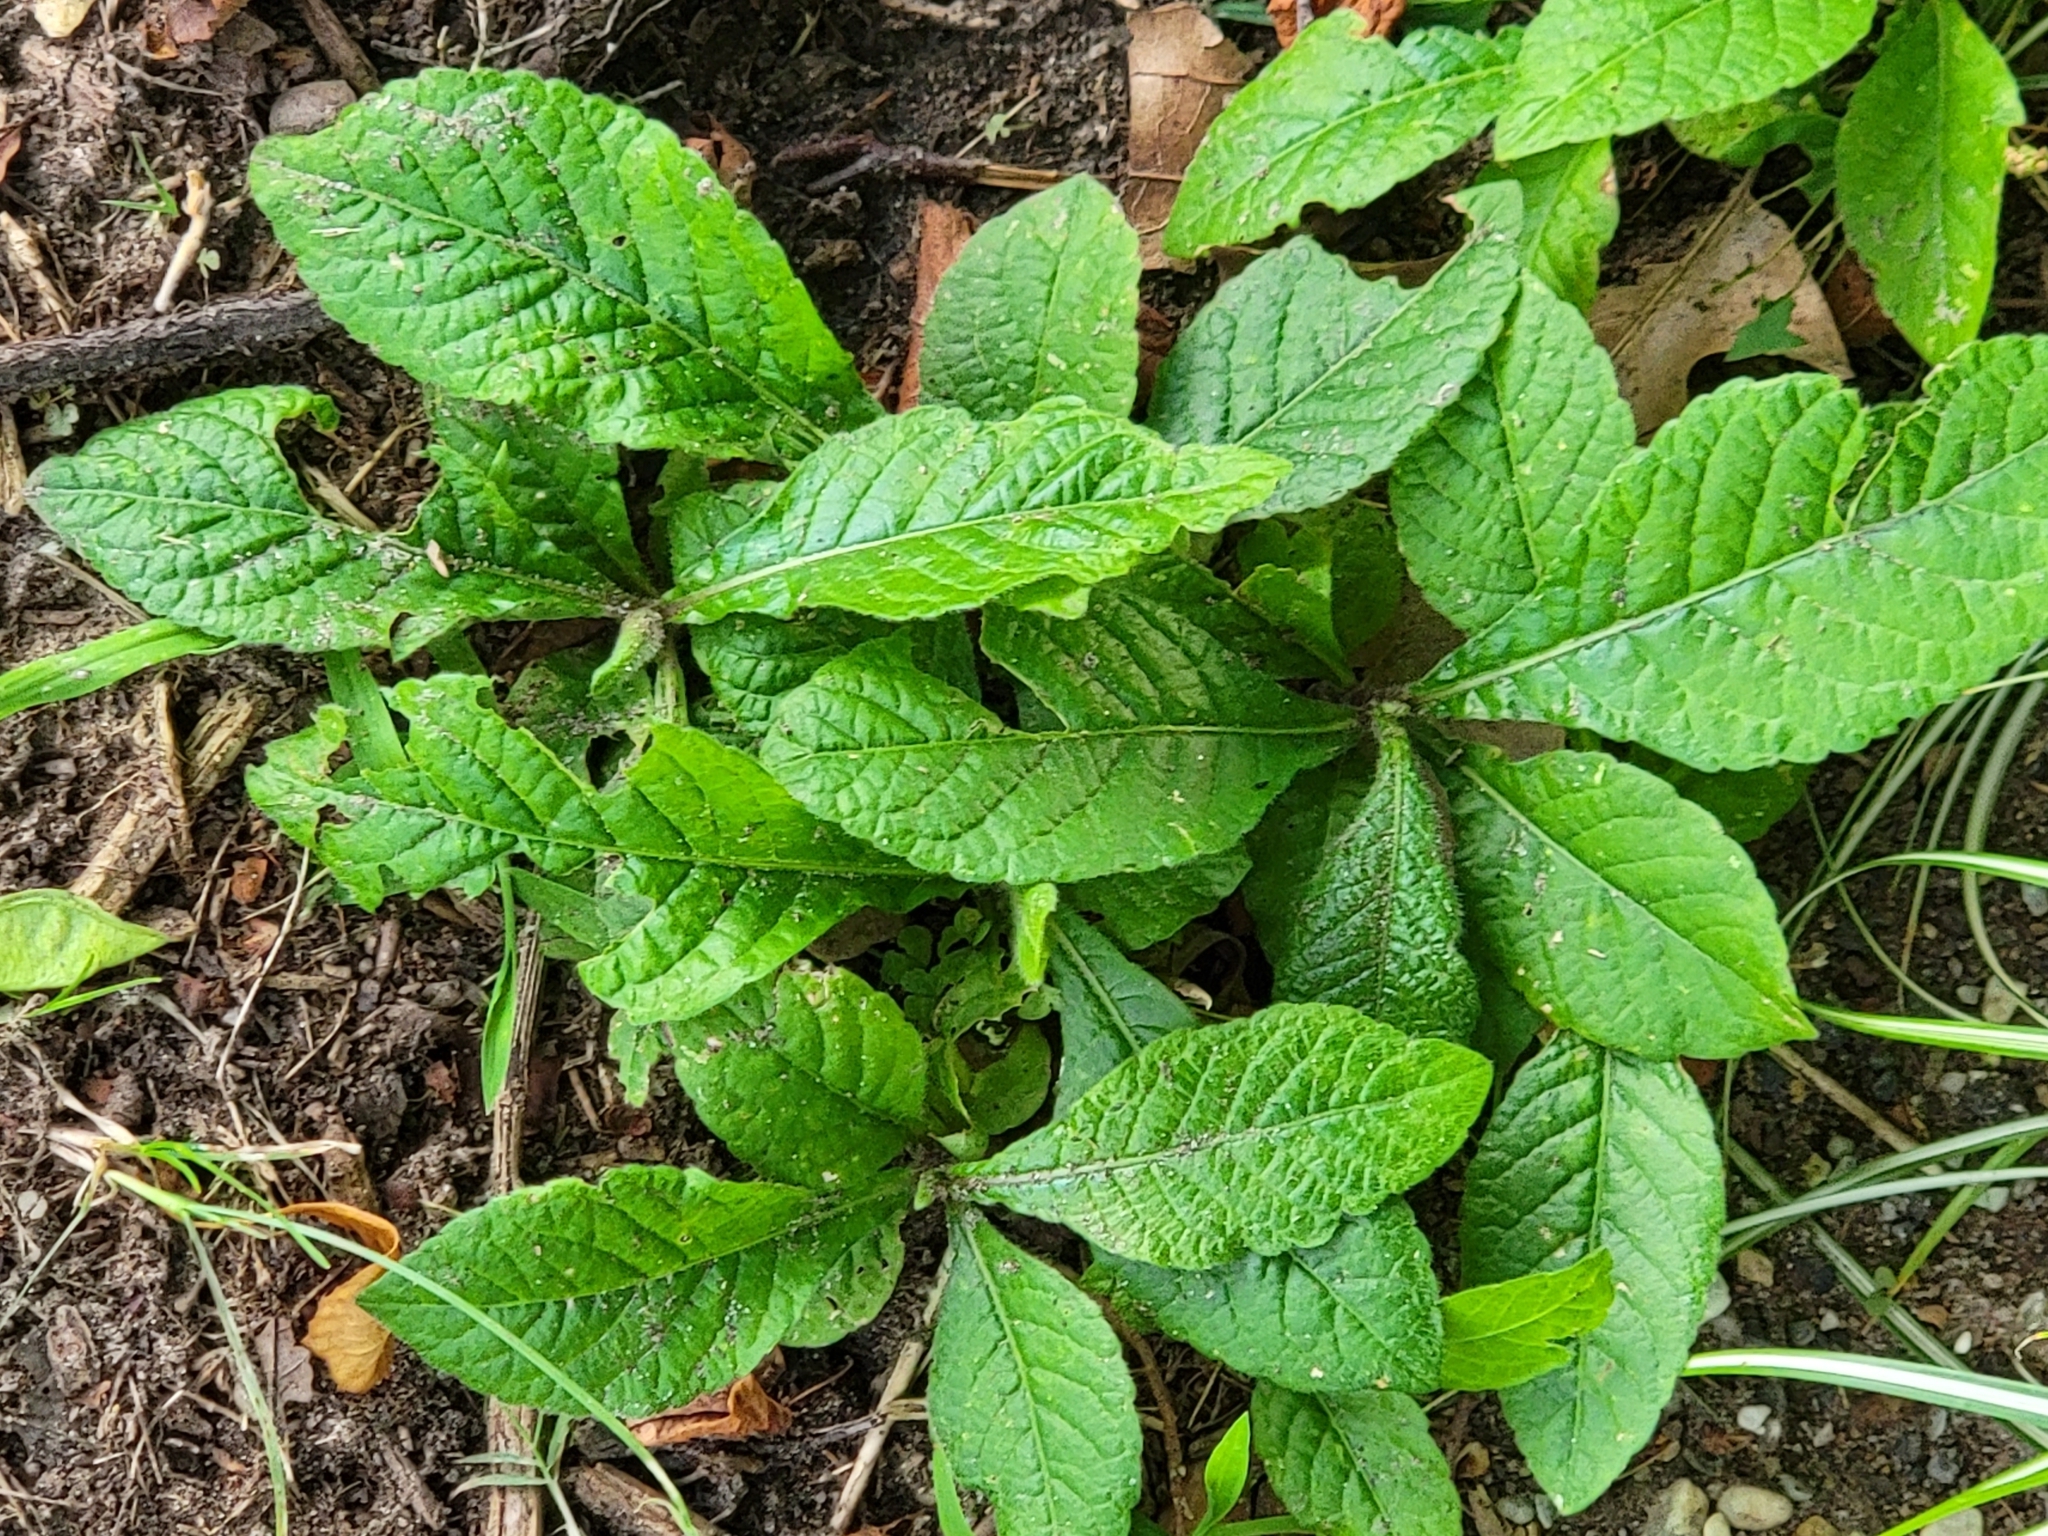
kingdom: Plantae
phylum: Tracheophyta
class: Magnoliopsida
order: Asterales
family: Asteraceae
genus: Elephantopus
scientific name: Elephantopus tomentosus
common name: Tobacco-weed
